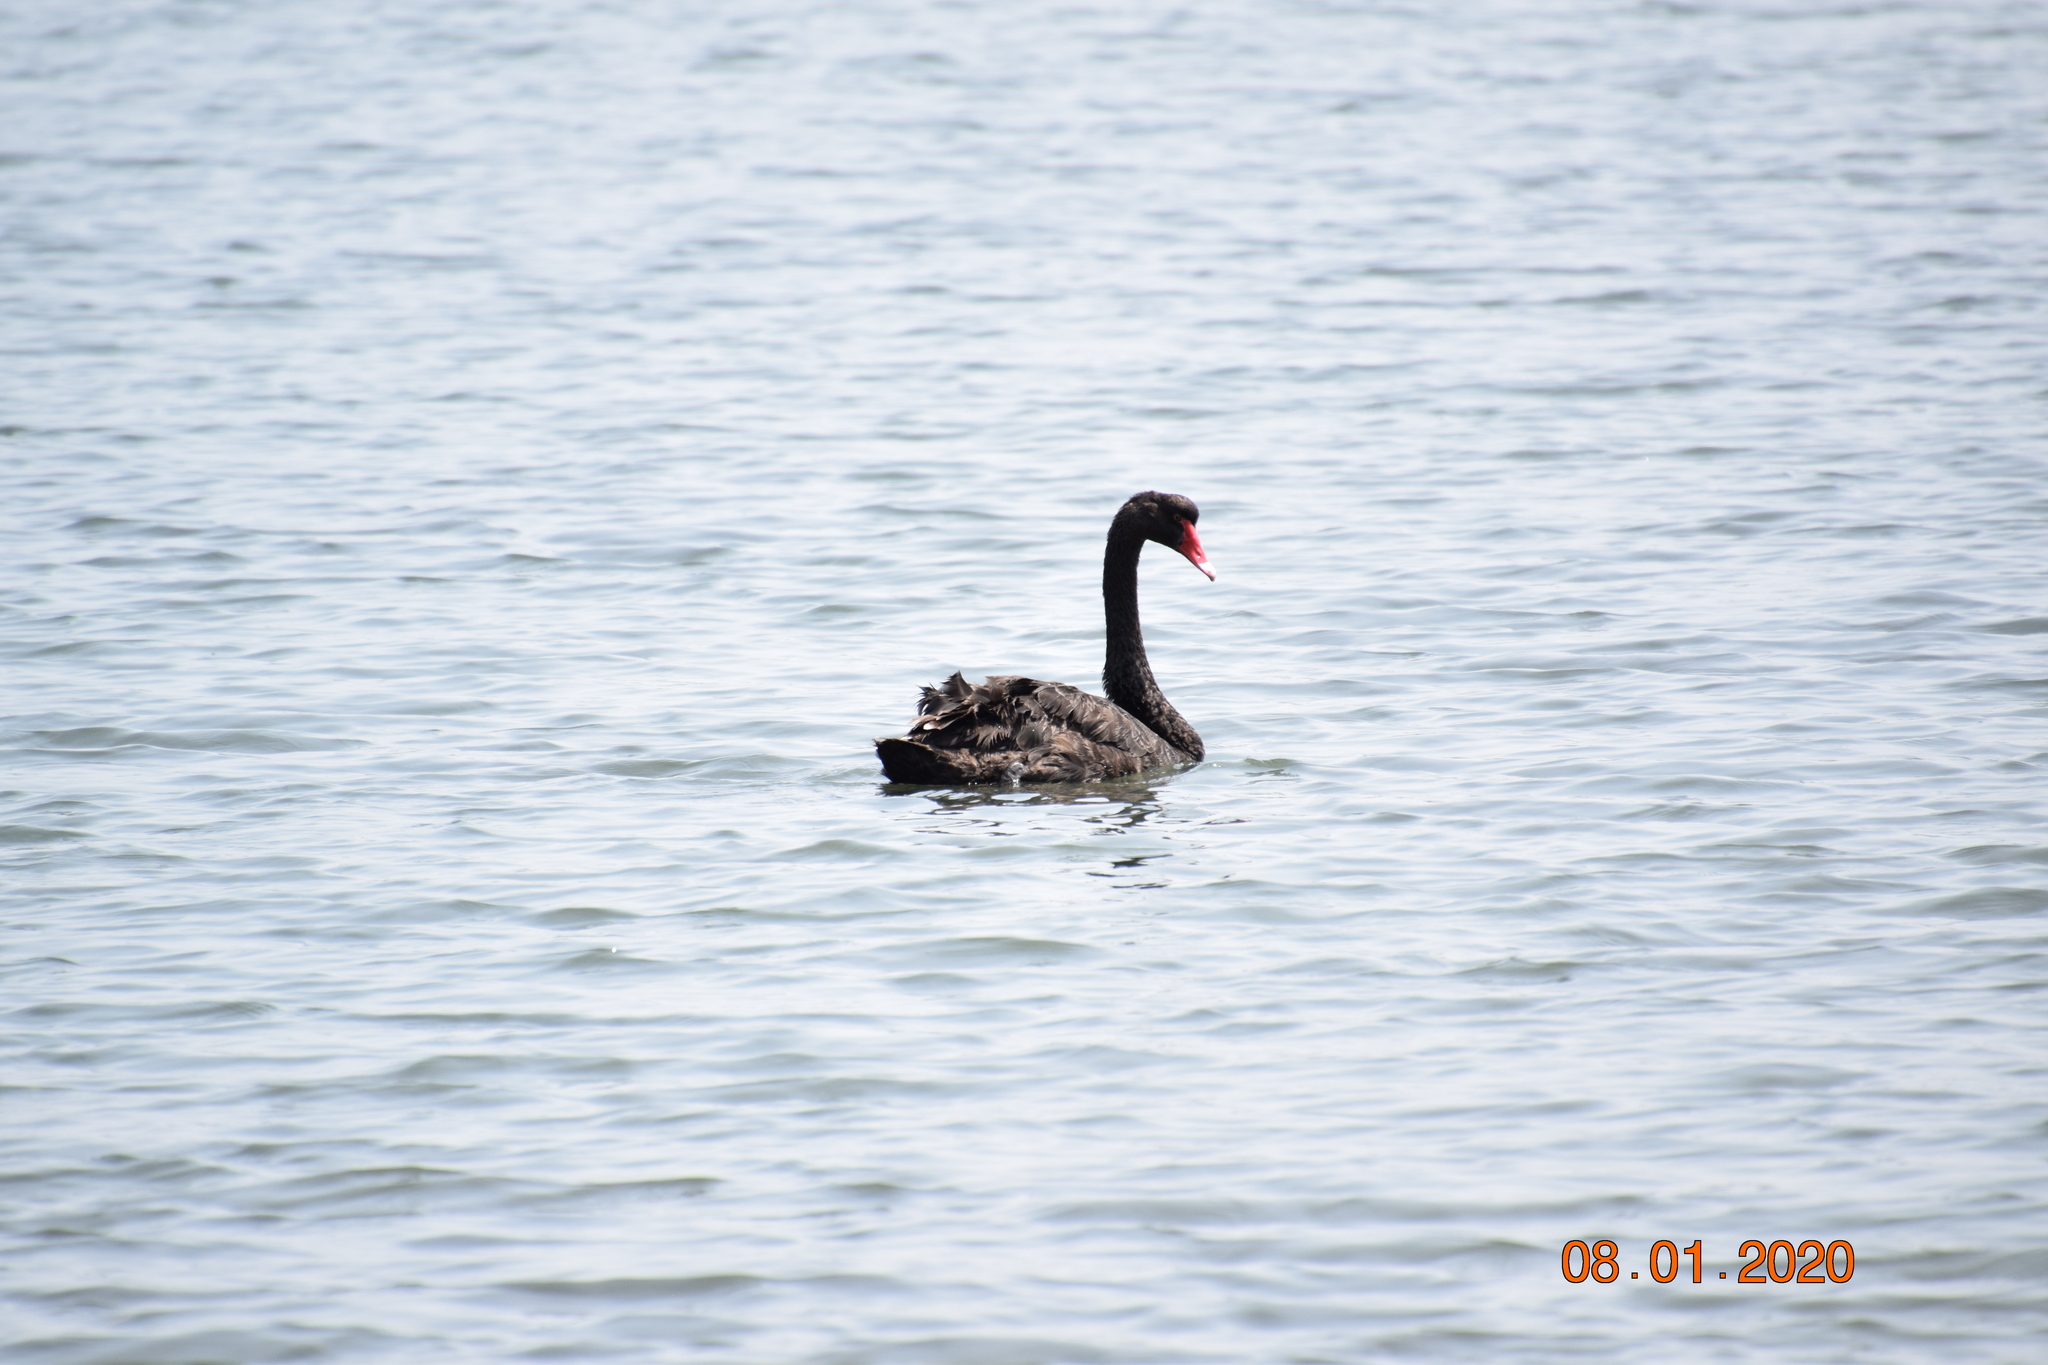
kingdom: Animalia
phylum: Chordata
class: Aves
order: Anseriformes
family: Anatidae
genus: Cygnus
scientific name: Cygnus atratus
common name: Black swan
